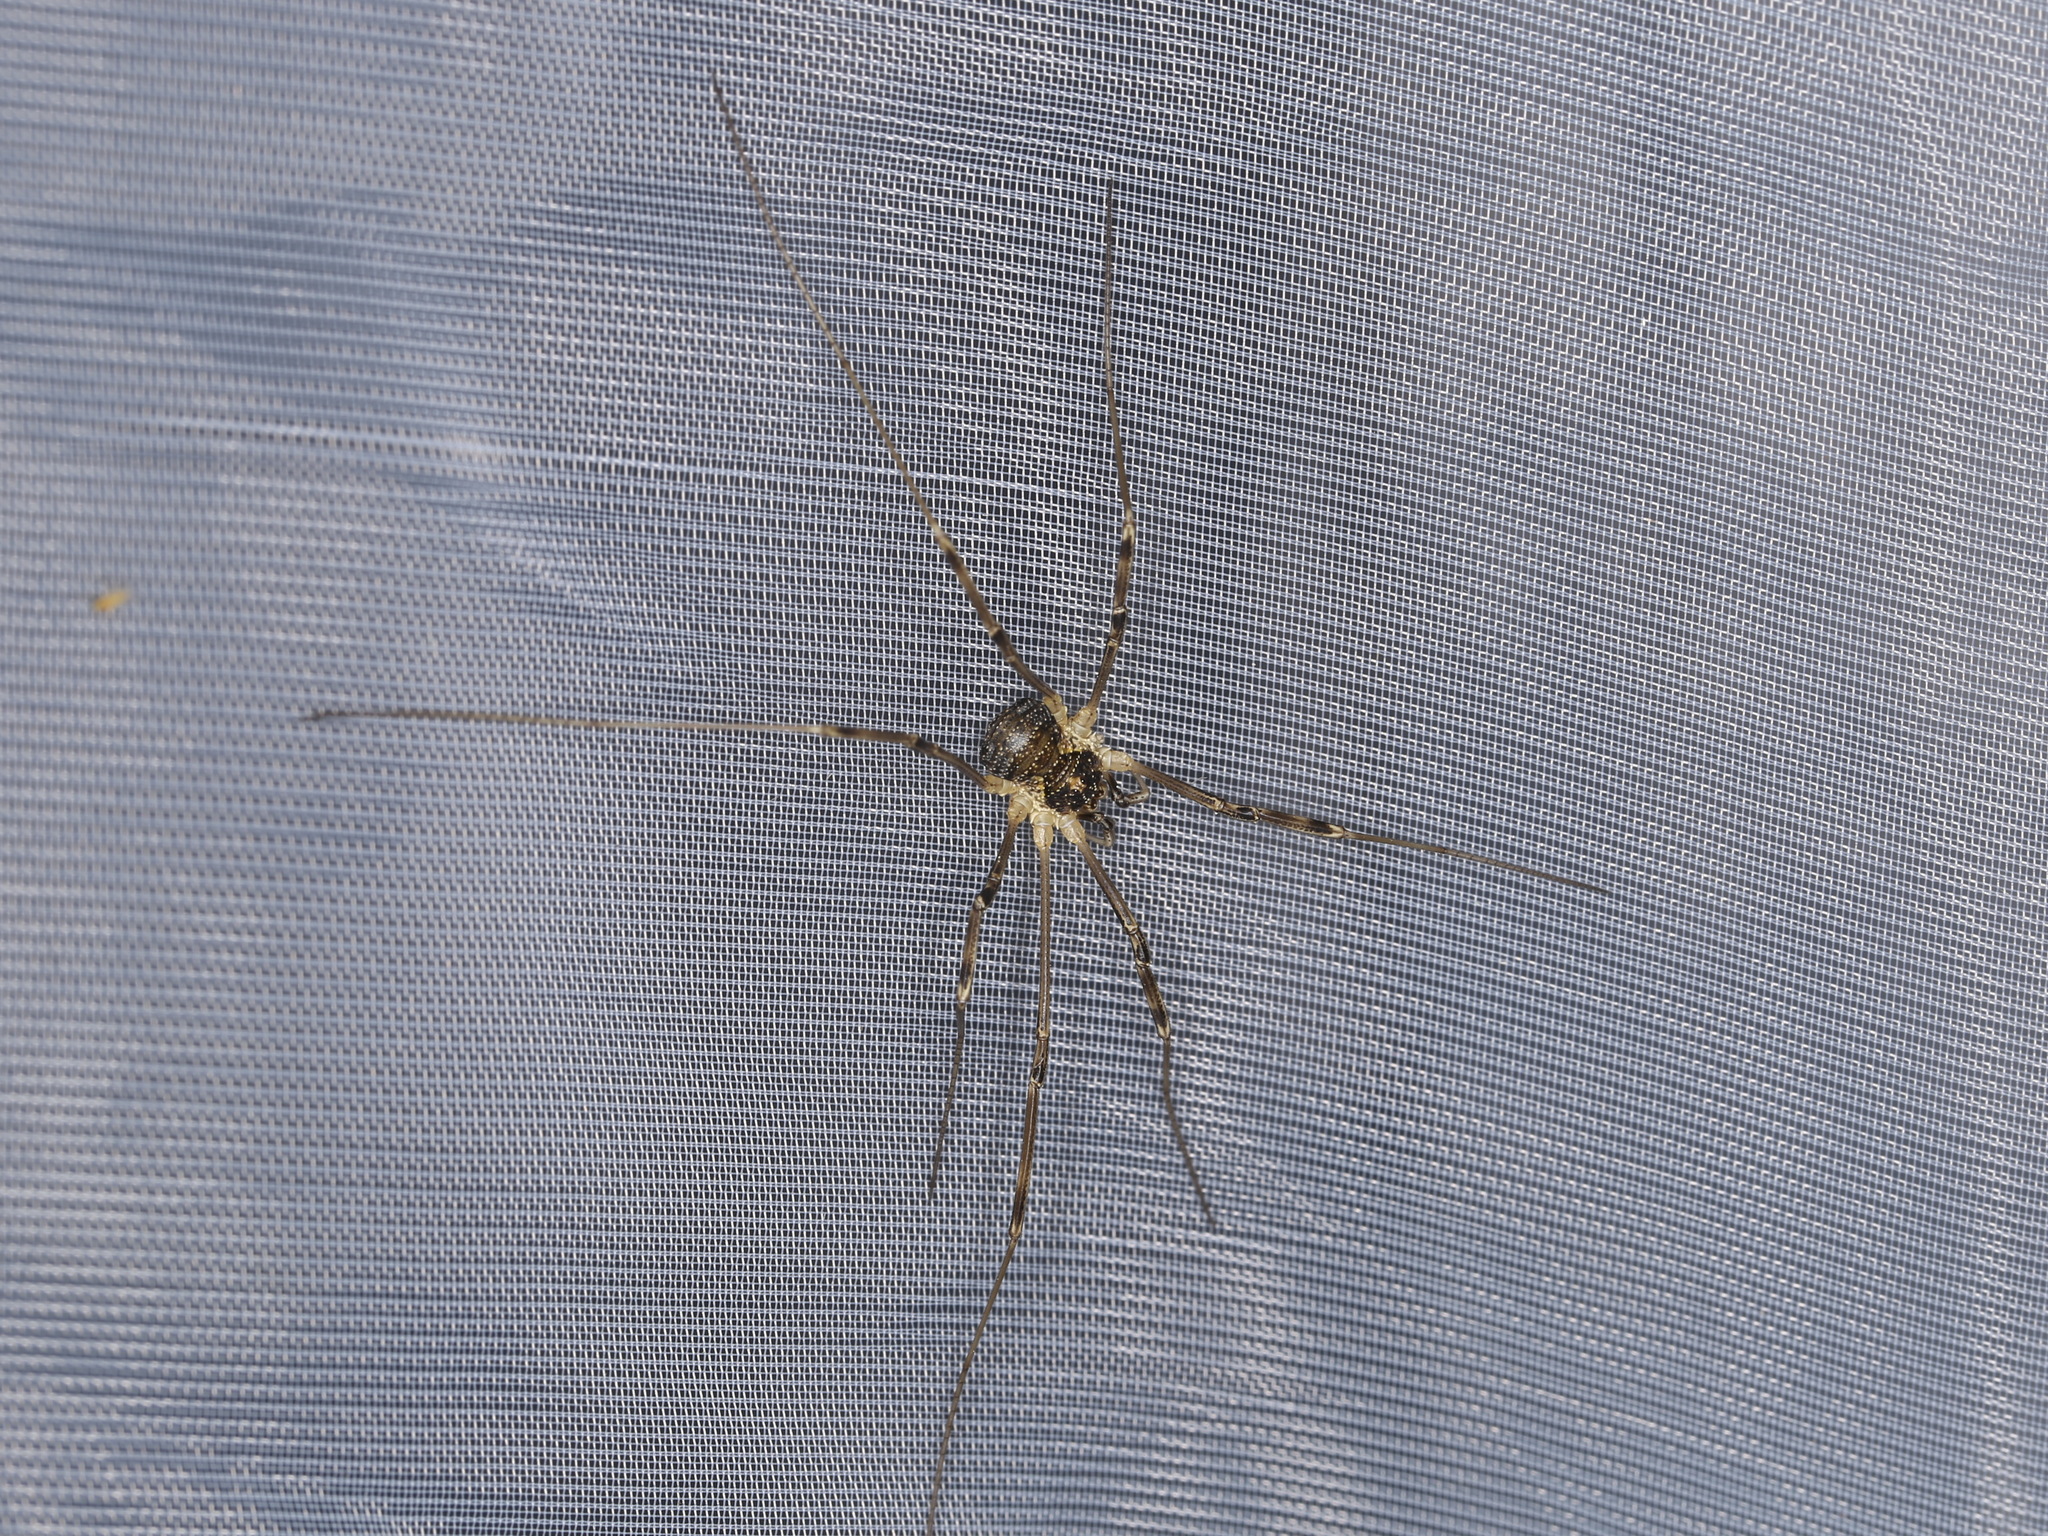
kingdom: Animalia
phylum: Arthropoda
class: Arachnida
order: Opiliones
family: Phalangiidae
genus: Mitopus
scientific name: Mitopus morio
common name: Saddleback harvestman
